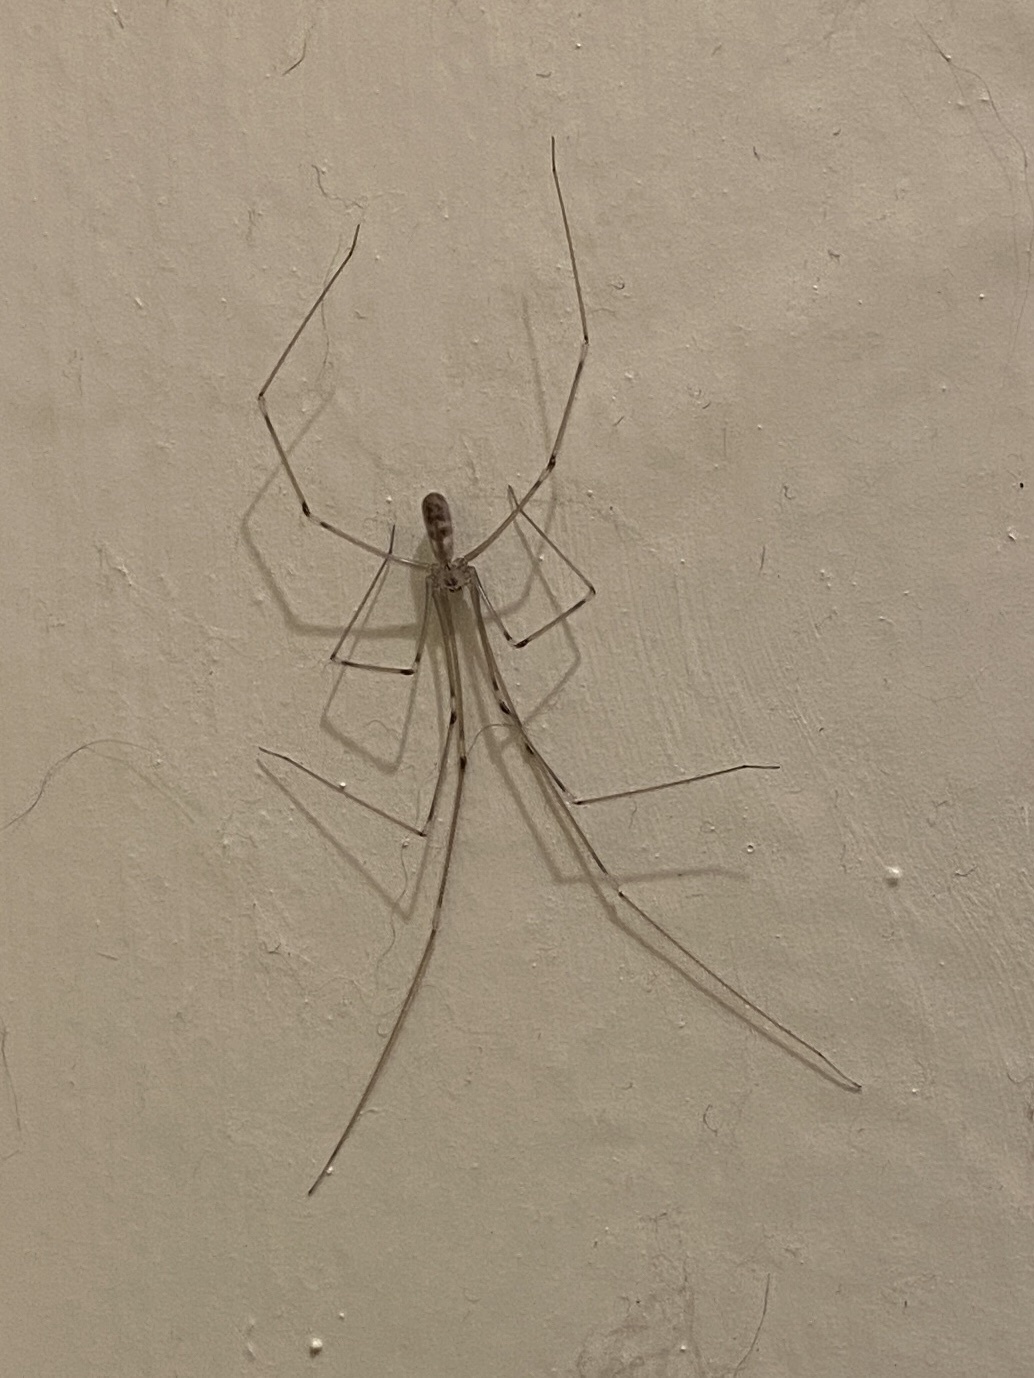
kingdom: Animalia
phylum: Arthropoda
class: Arachnida
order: Araneae
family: Pholcidae
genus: Pholcus
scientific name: Pholcus phalangioides
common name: Longbodied cellar spider
